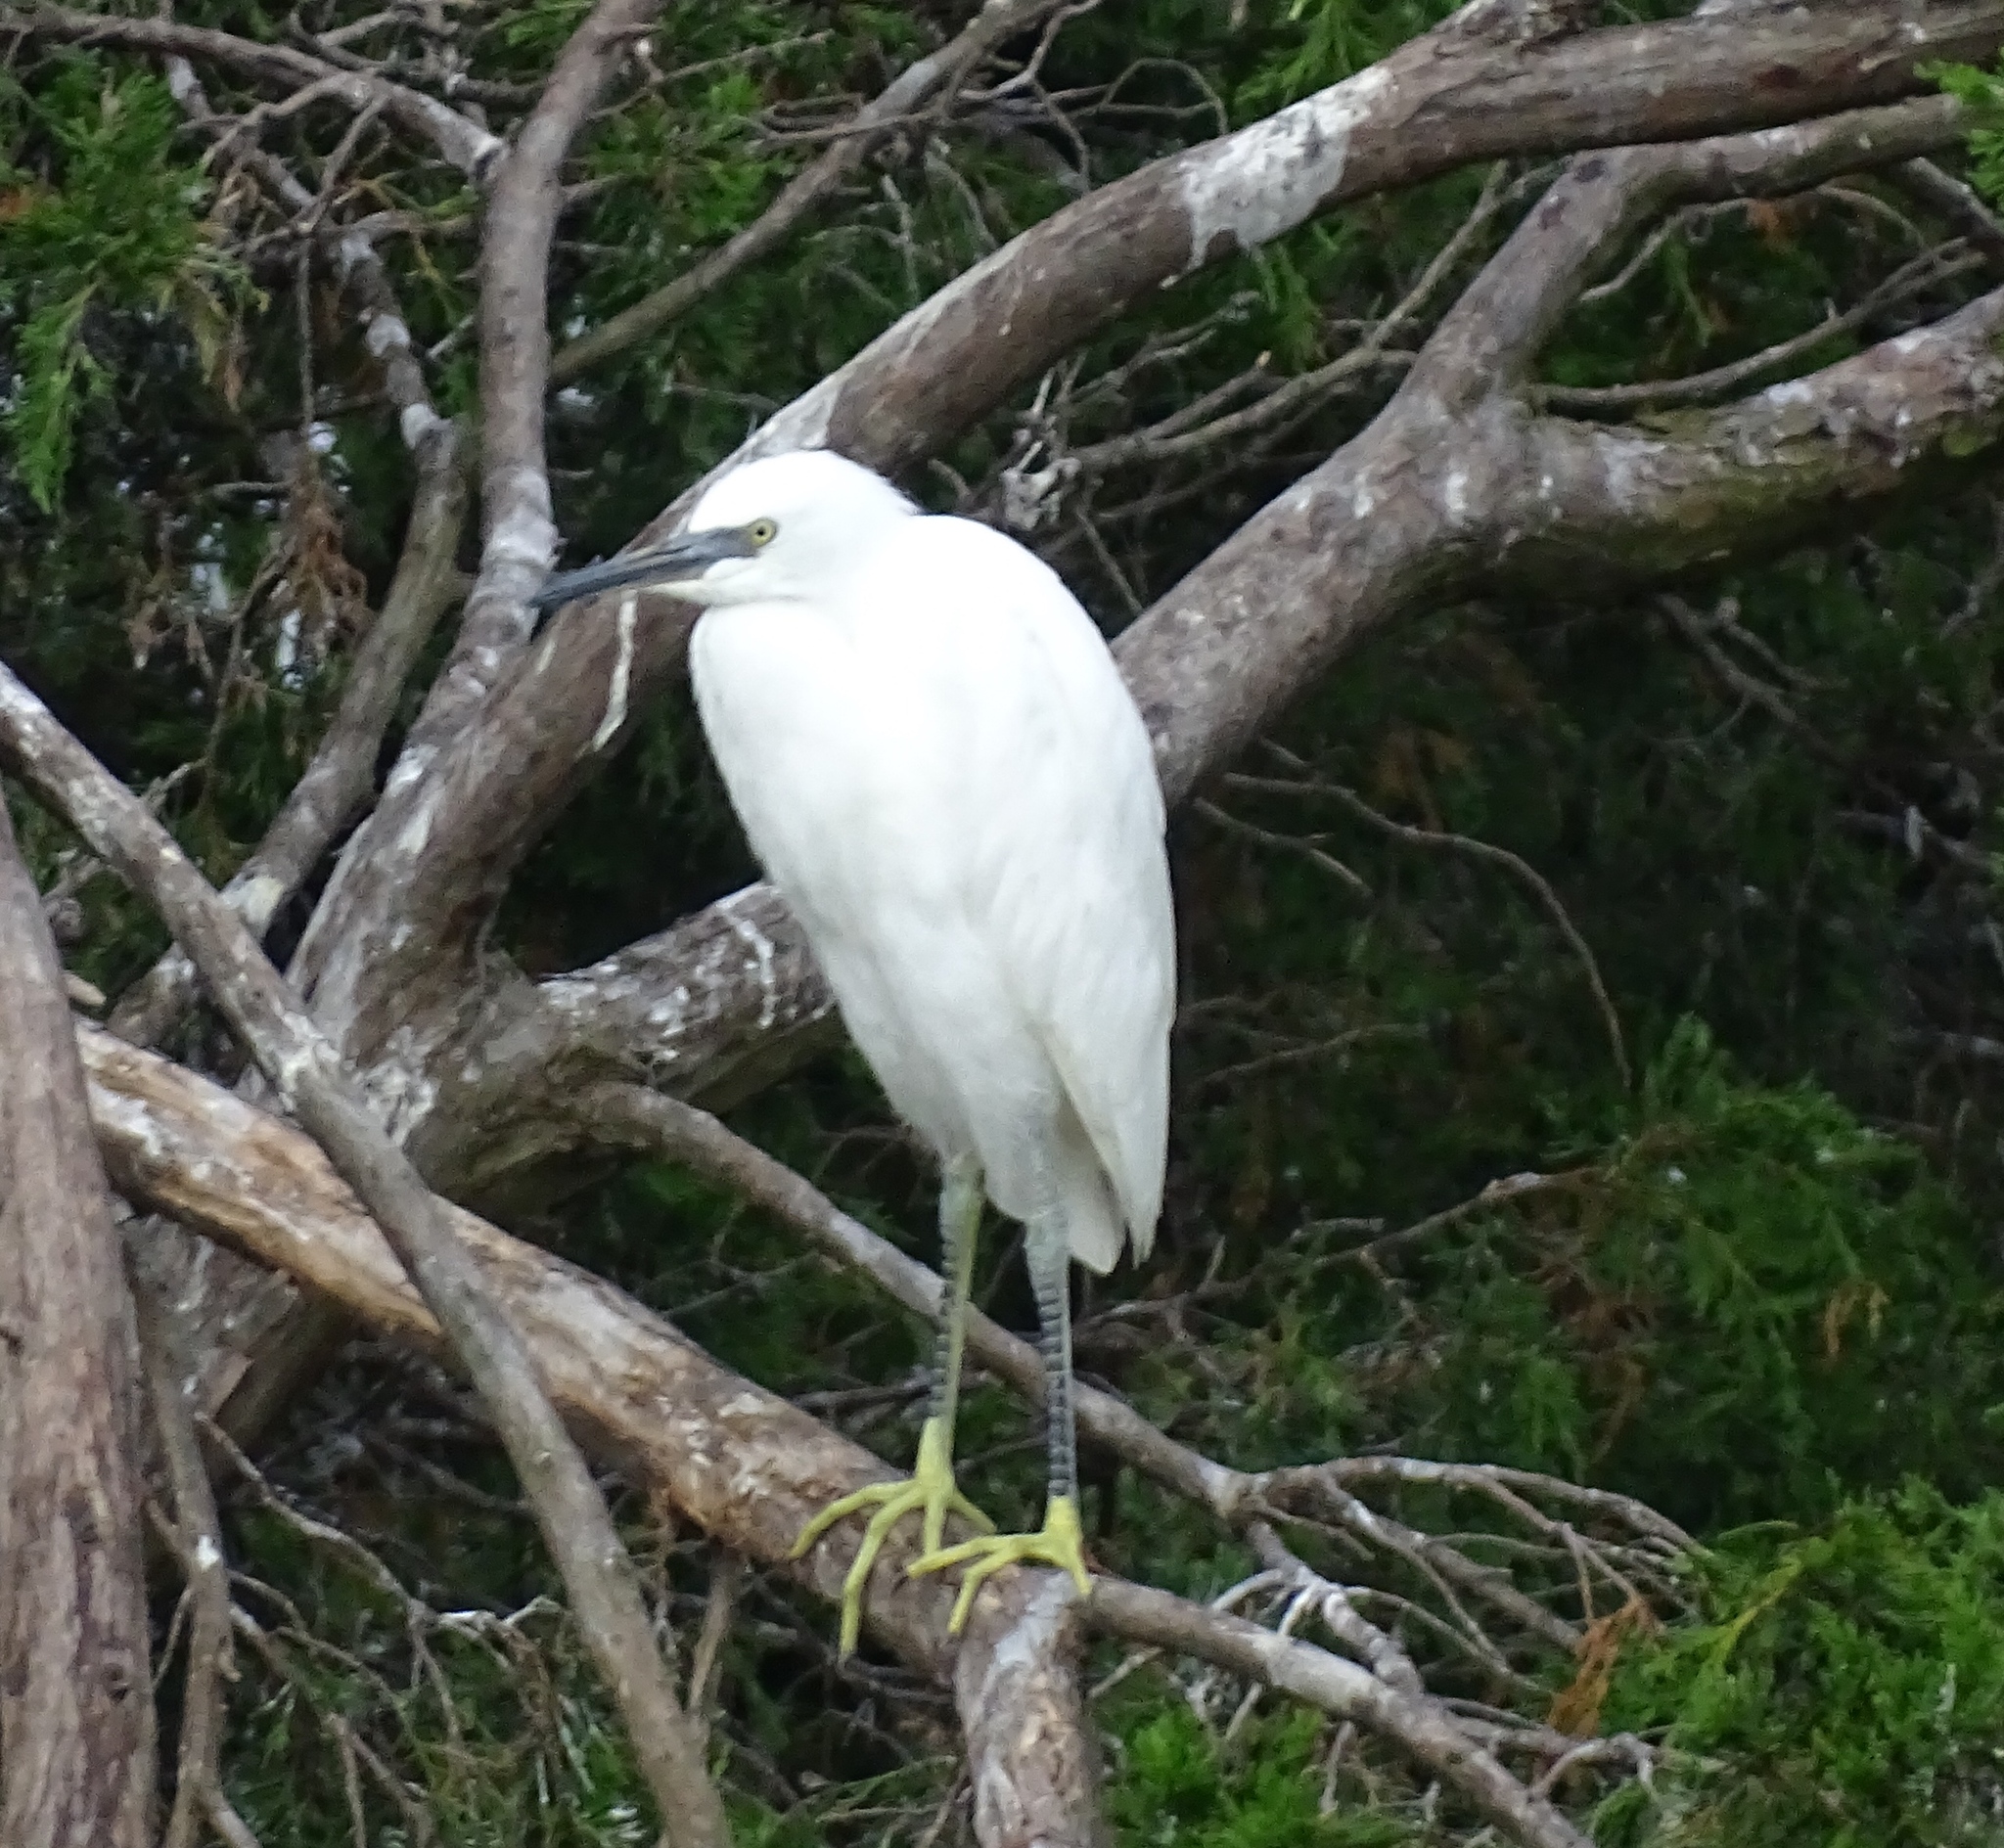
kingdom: Animalia
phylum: Chordata
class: Aves
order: Pelecaniformes
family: Ardeidae
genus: Egretta
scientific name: Egretta thula
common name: Snowy egret
